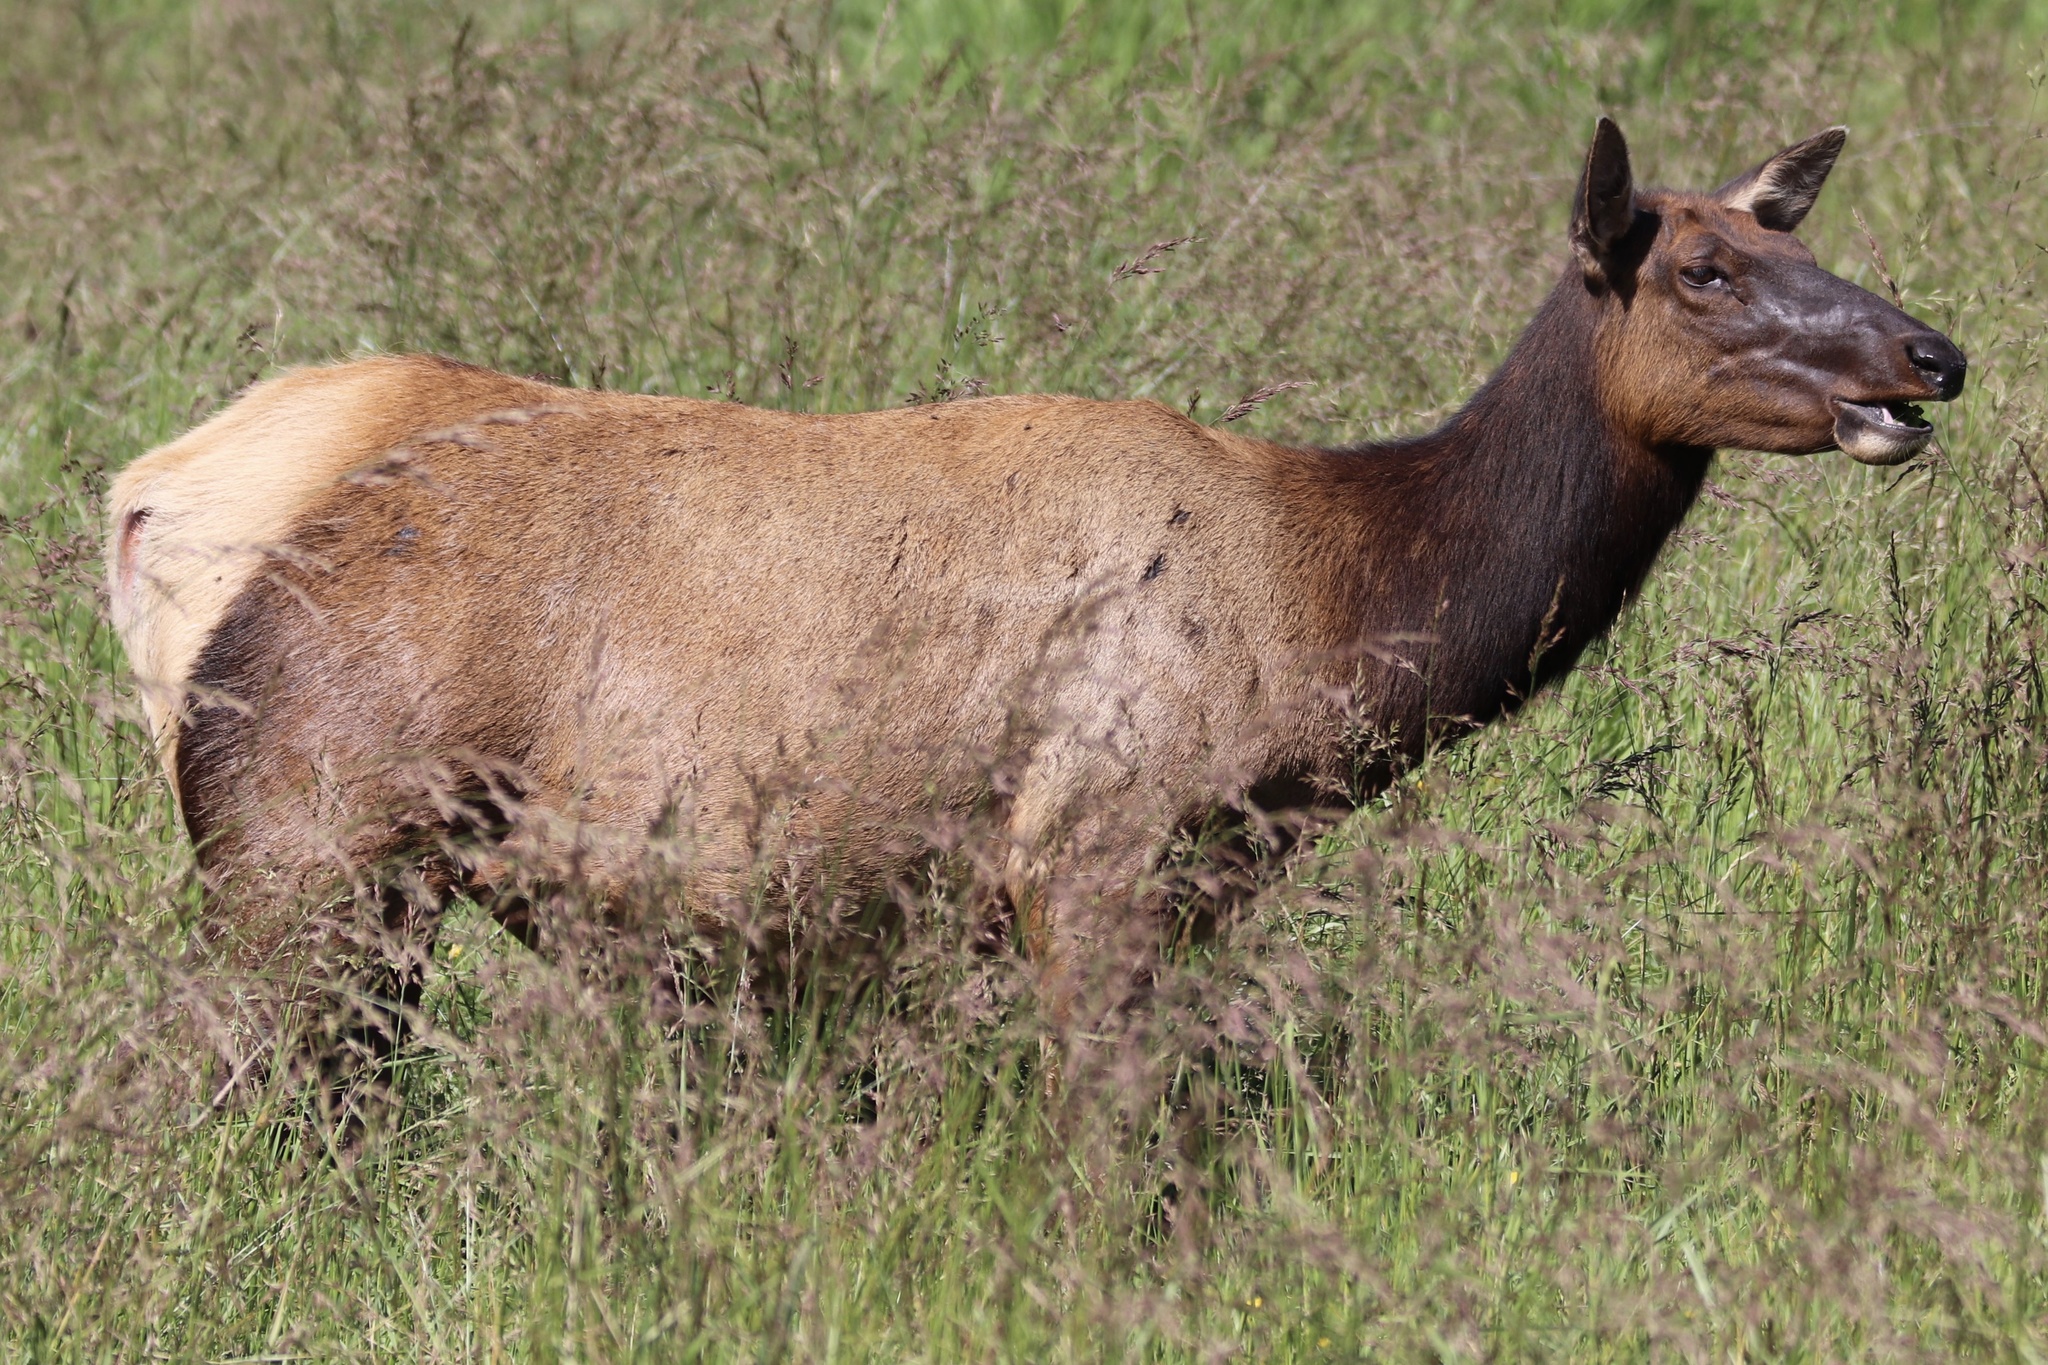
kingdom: Animalia
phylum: Chordata
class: Mammalia
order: Artiodactyla
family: Cervidae
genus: Cervus
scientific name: Cervus elaphus
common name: Red deer
